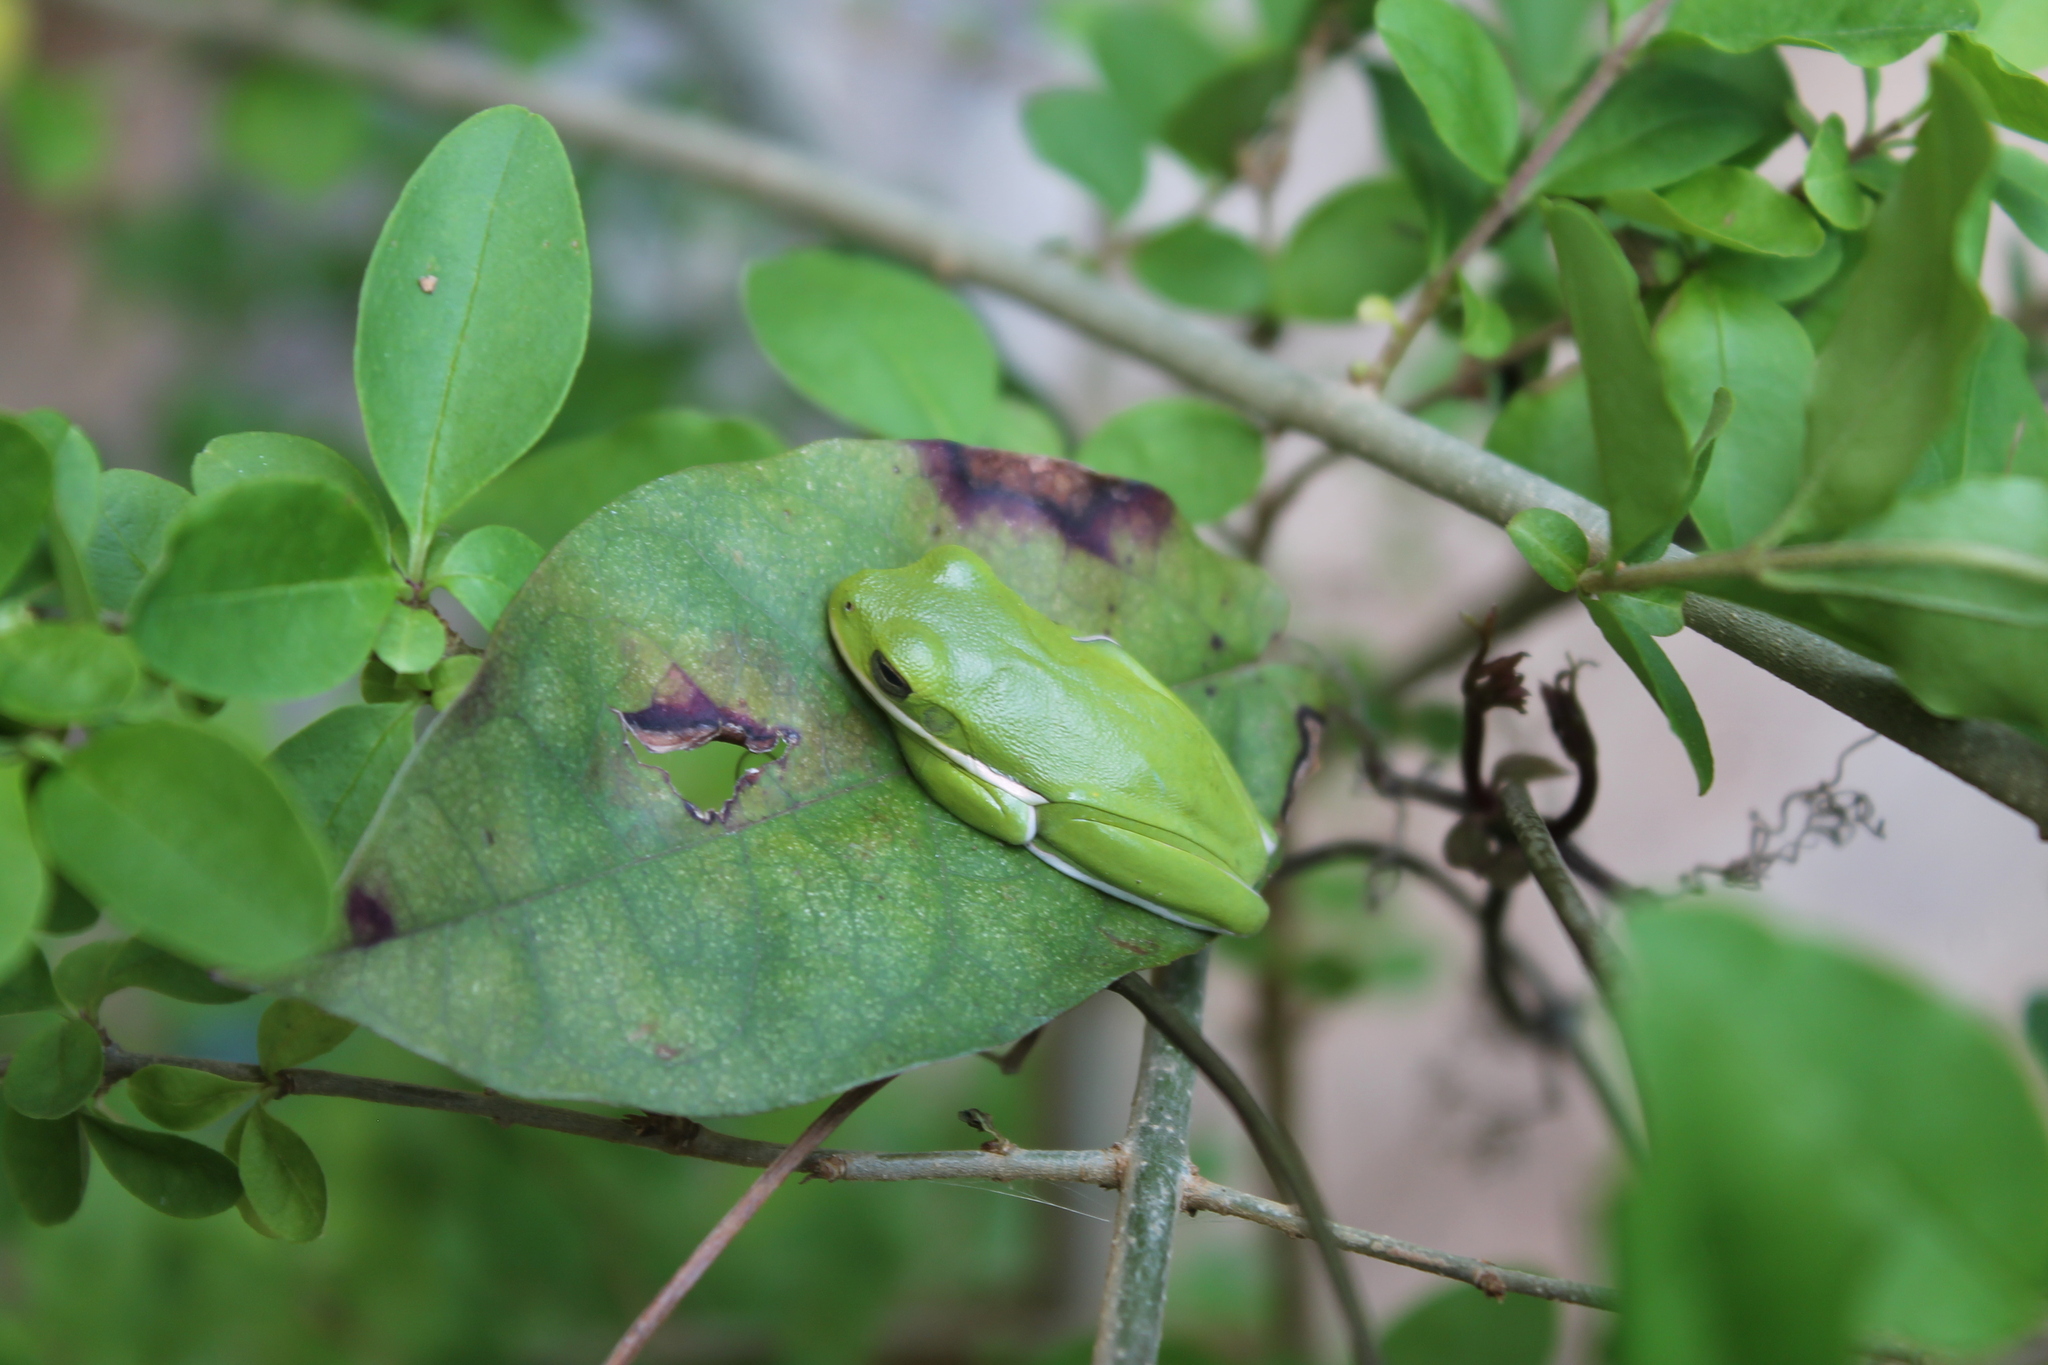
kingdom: Animalia
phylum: Chordata
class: Amphibia
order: Anura
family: Hylidae
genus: Dryophytes
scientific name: Dryophytes cinereus
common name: Green treefrog
